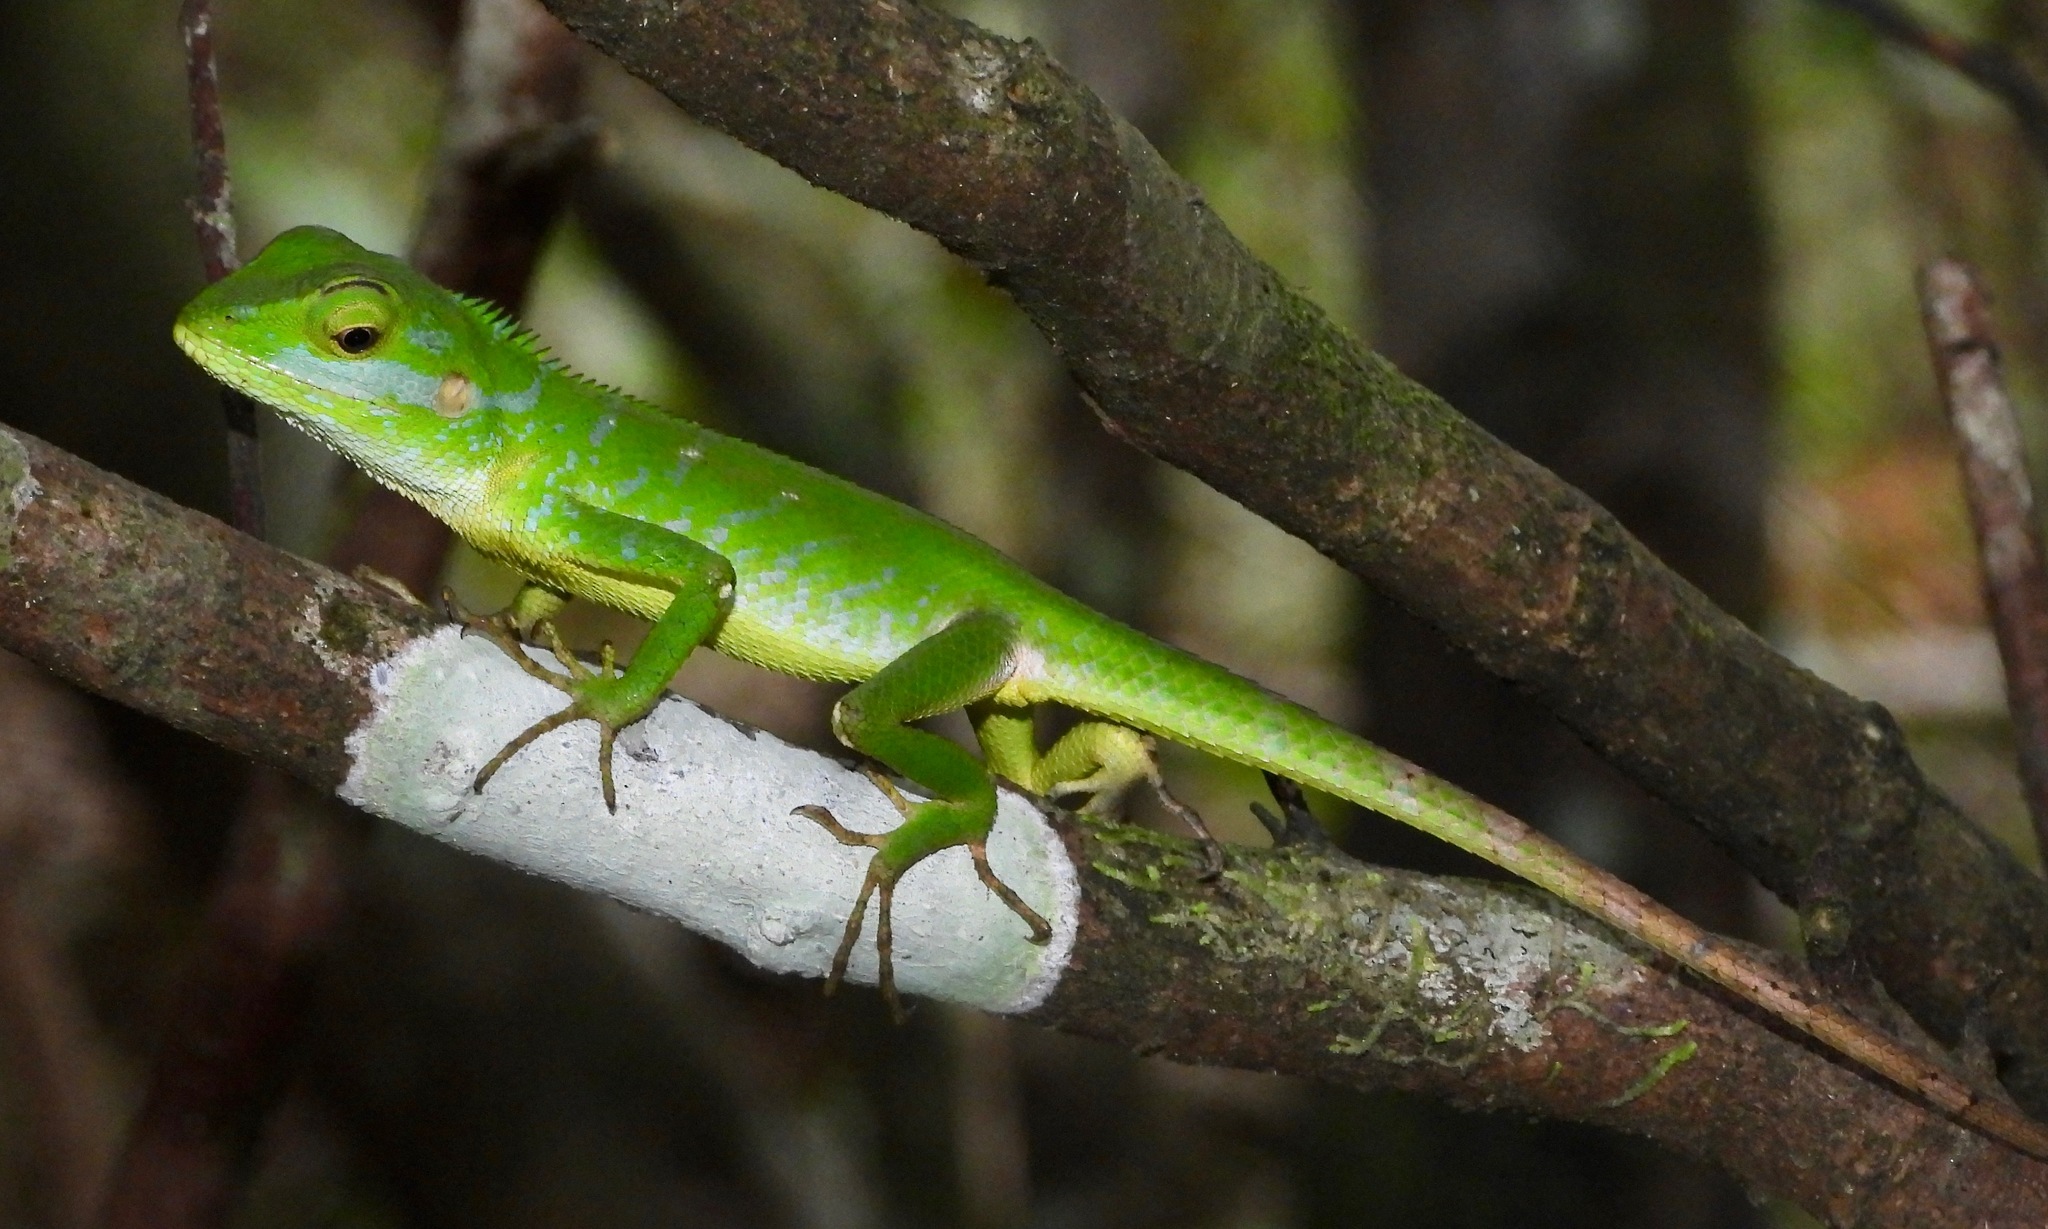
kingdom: Animalia
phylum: Chordata
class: Squamata
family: Agamidae
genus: Calotes
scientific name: Calotes pethiyagodai
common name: Pethiyagoda’s crestless lizard
